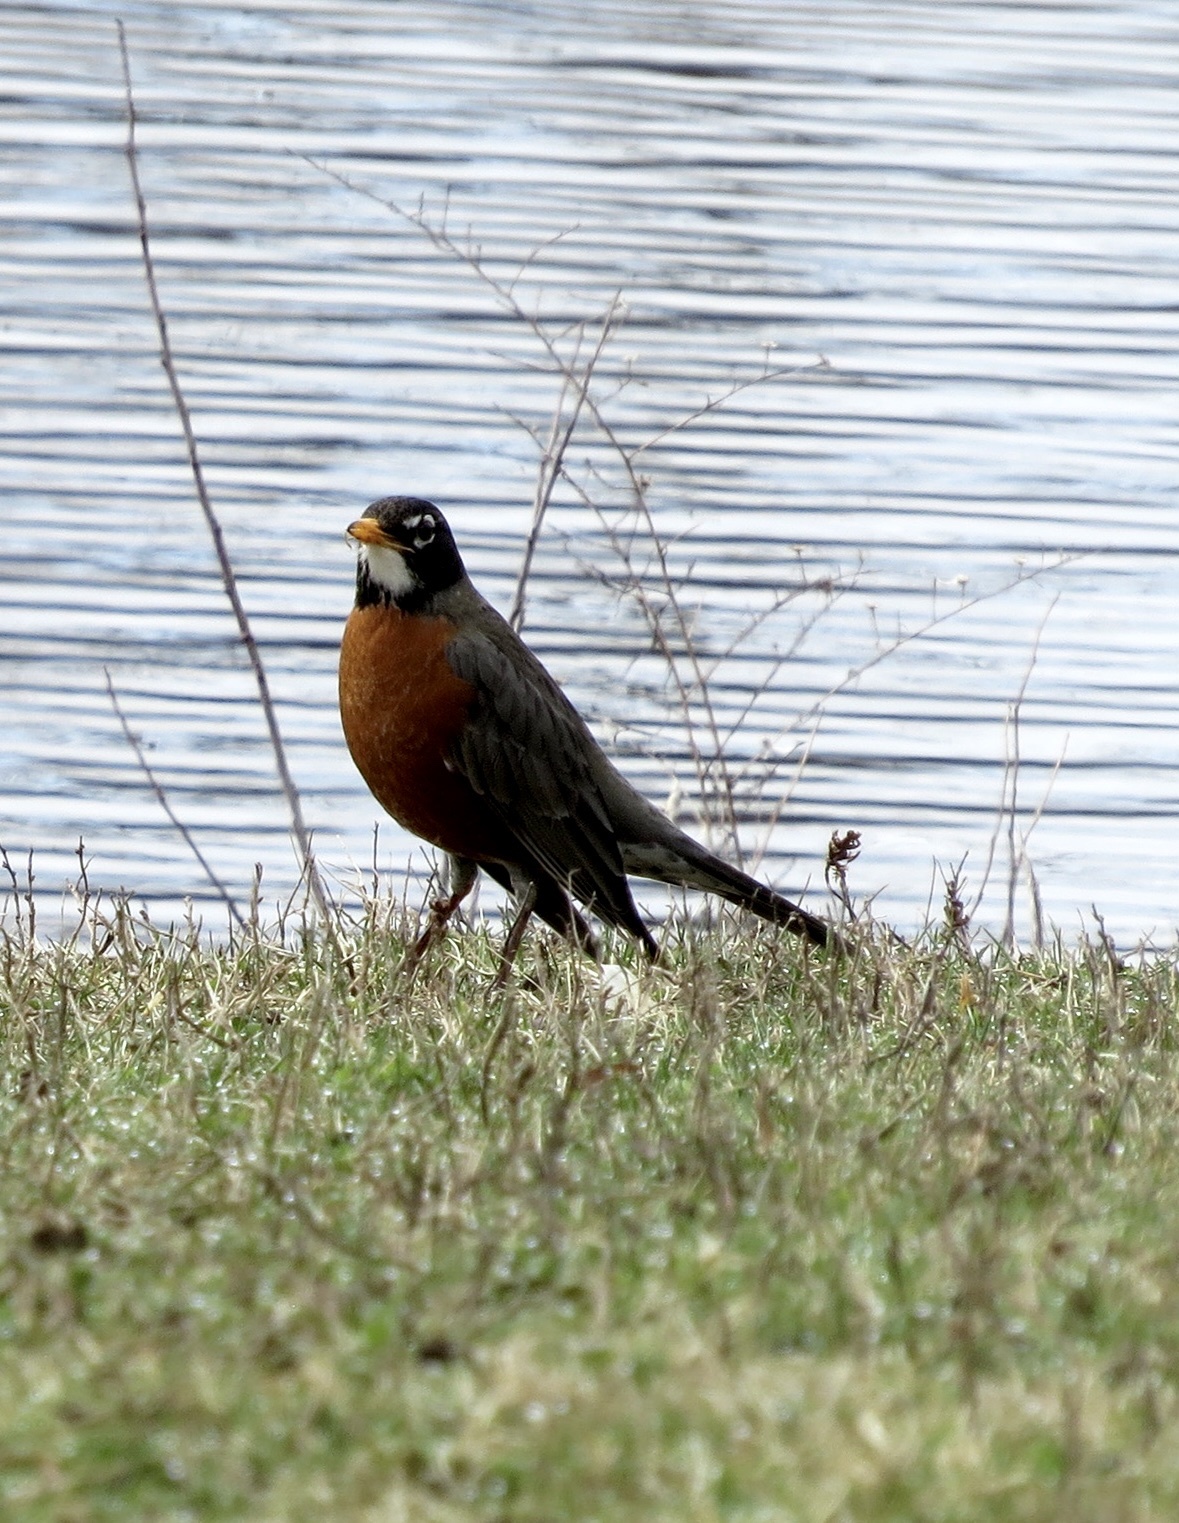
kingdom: Animalia
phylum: Chordata
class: Aves
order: Passeriformes
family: Turdidae
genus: Turdus
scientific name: Turdus migratorius
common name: American robin
